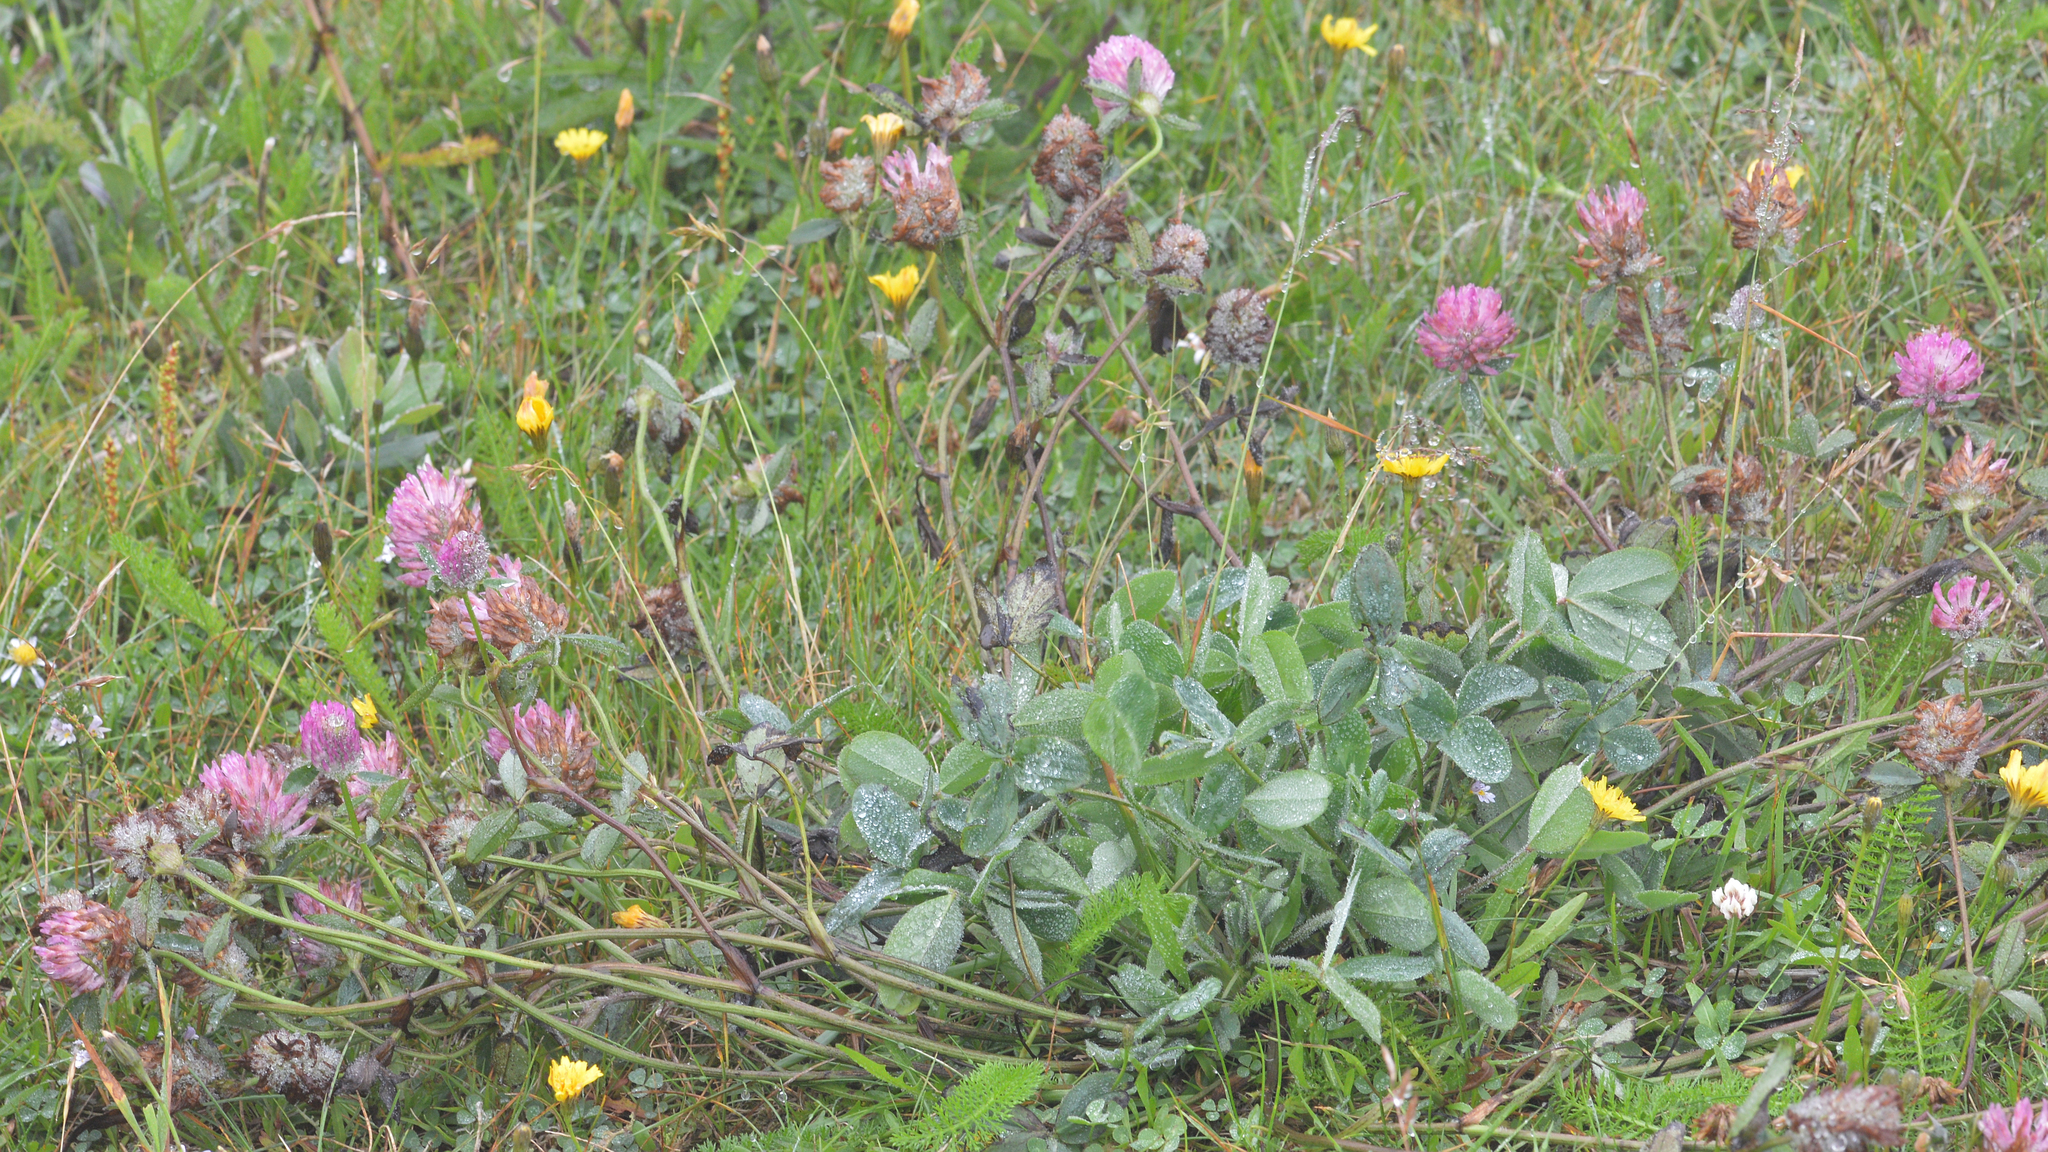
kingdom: Plantae
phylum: Tracheophyta
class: Magnoliopsida
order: Fabales
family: Fabaceae
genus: Trifolium
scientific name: Trifolium pratense
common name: Red clover
